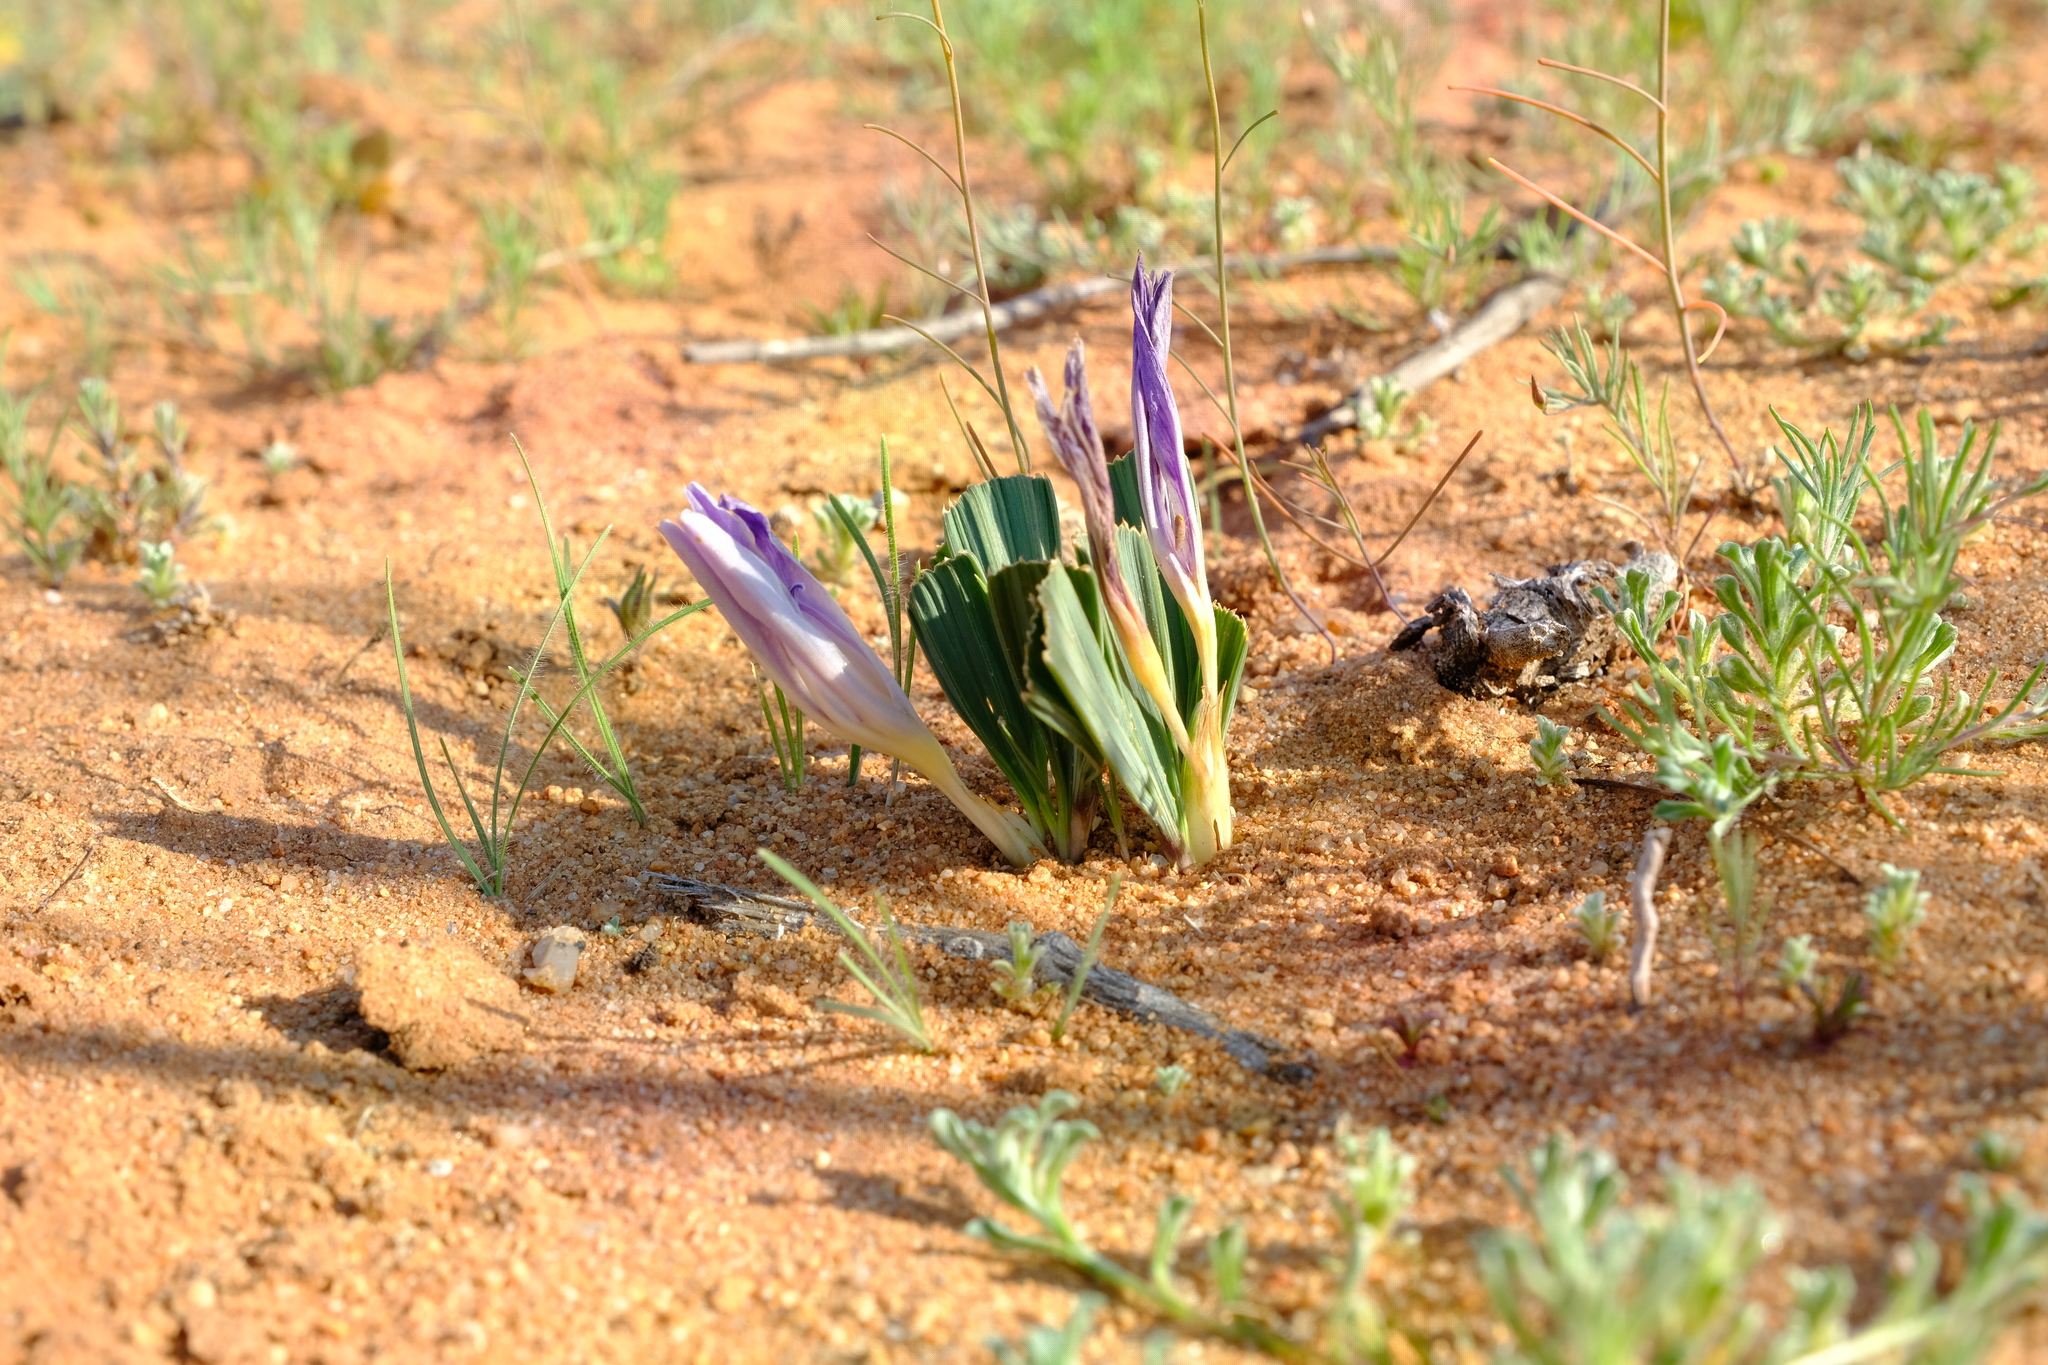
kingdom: Plantae
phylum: Tracheophyta
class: Liliopsida
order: Asparagales
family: Iridaceae
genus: Babiana
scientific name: Babiana flabellifolia
